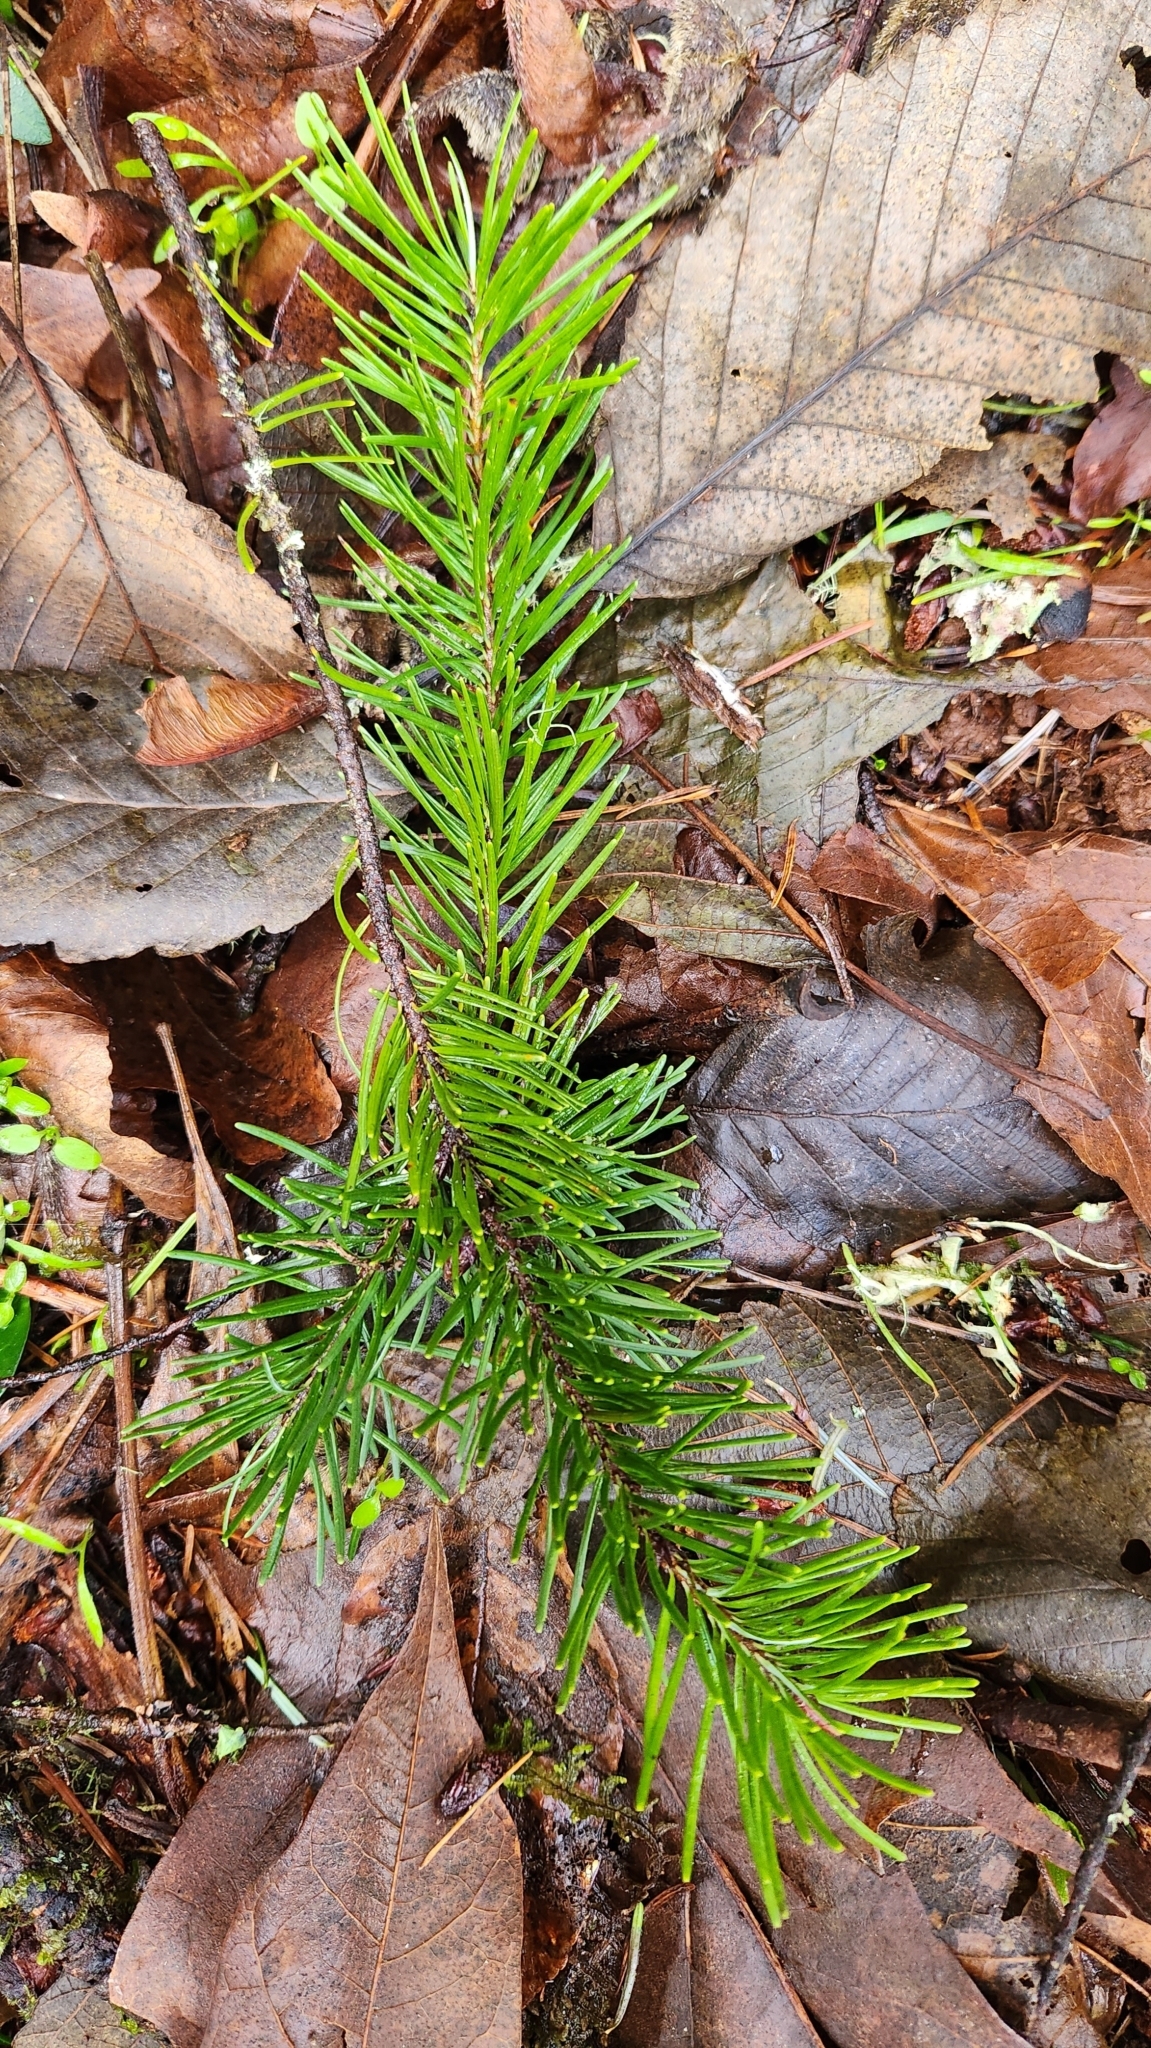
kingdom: Plantae
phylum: Tracheophyta
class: Pinopsida
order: Pinales
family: Pinaceae
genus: Pseudotsuga
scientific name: Pseudotsuga menziesii
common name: Douglas fir
